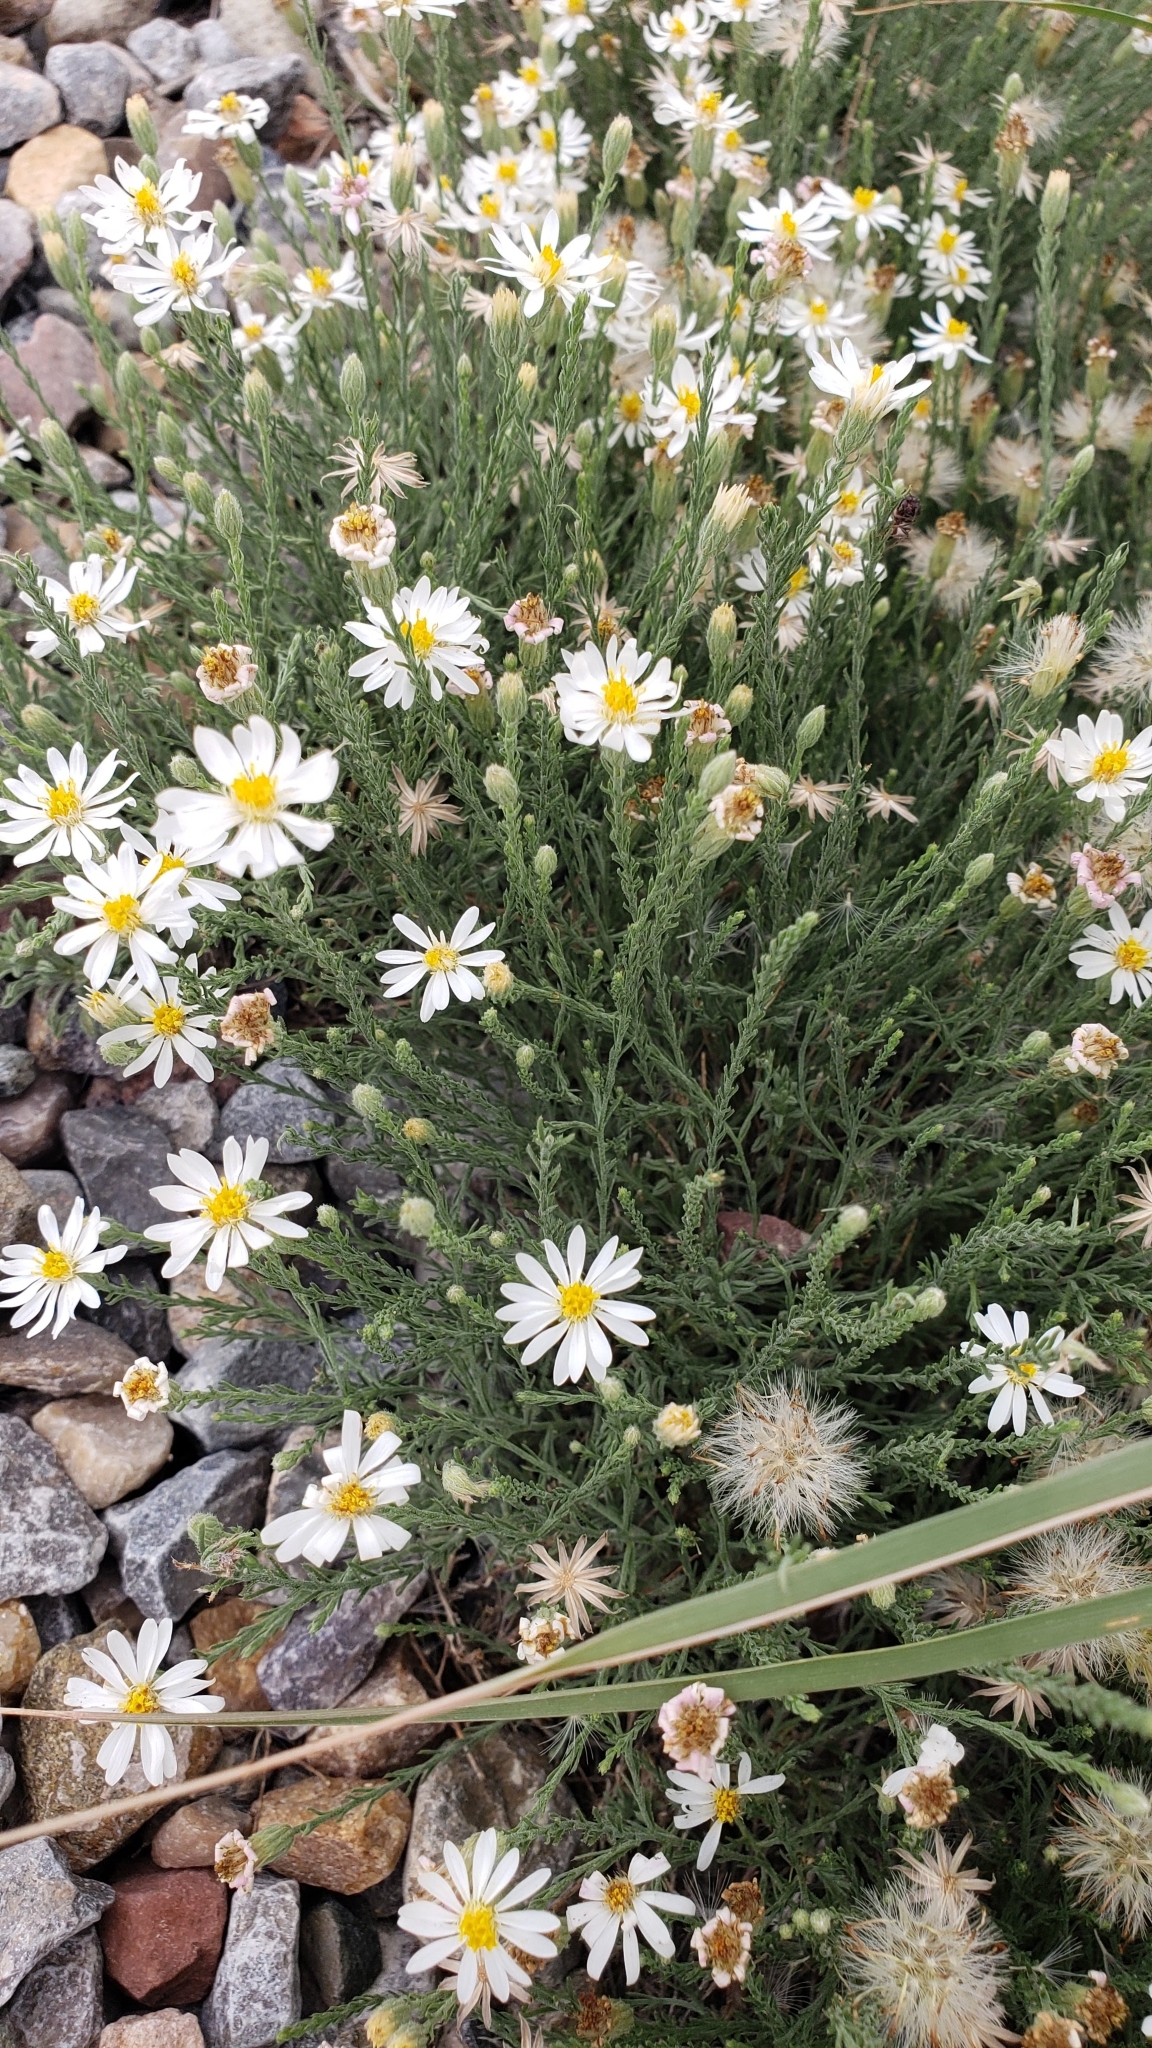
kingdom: Plantae
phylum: Tracheophyta
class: Magnoliopsida
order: Asterales
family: Asteraceae
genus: Chaetopappa
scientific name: Chaetopappa ericoides
